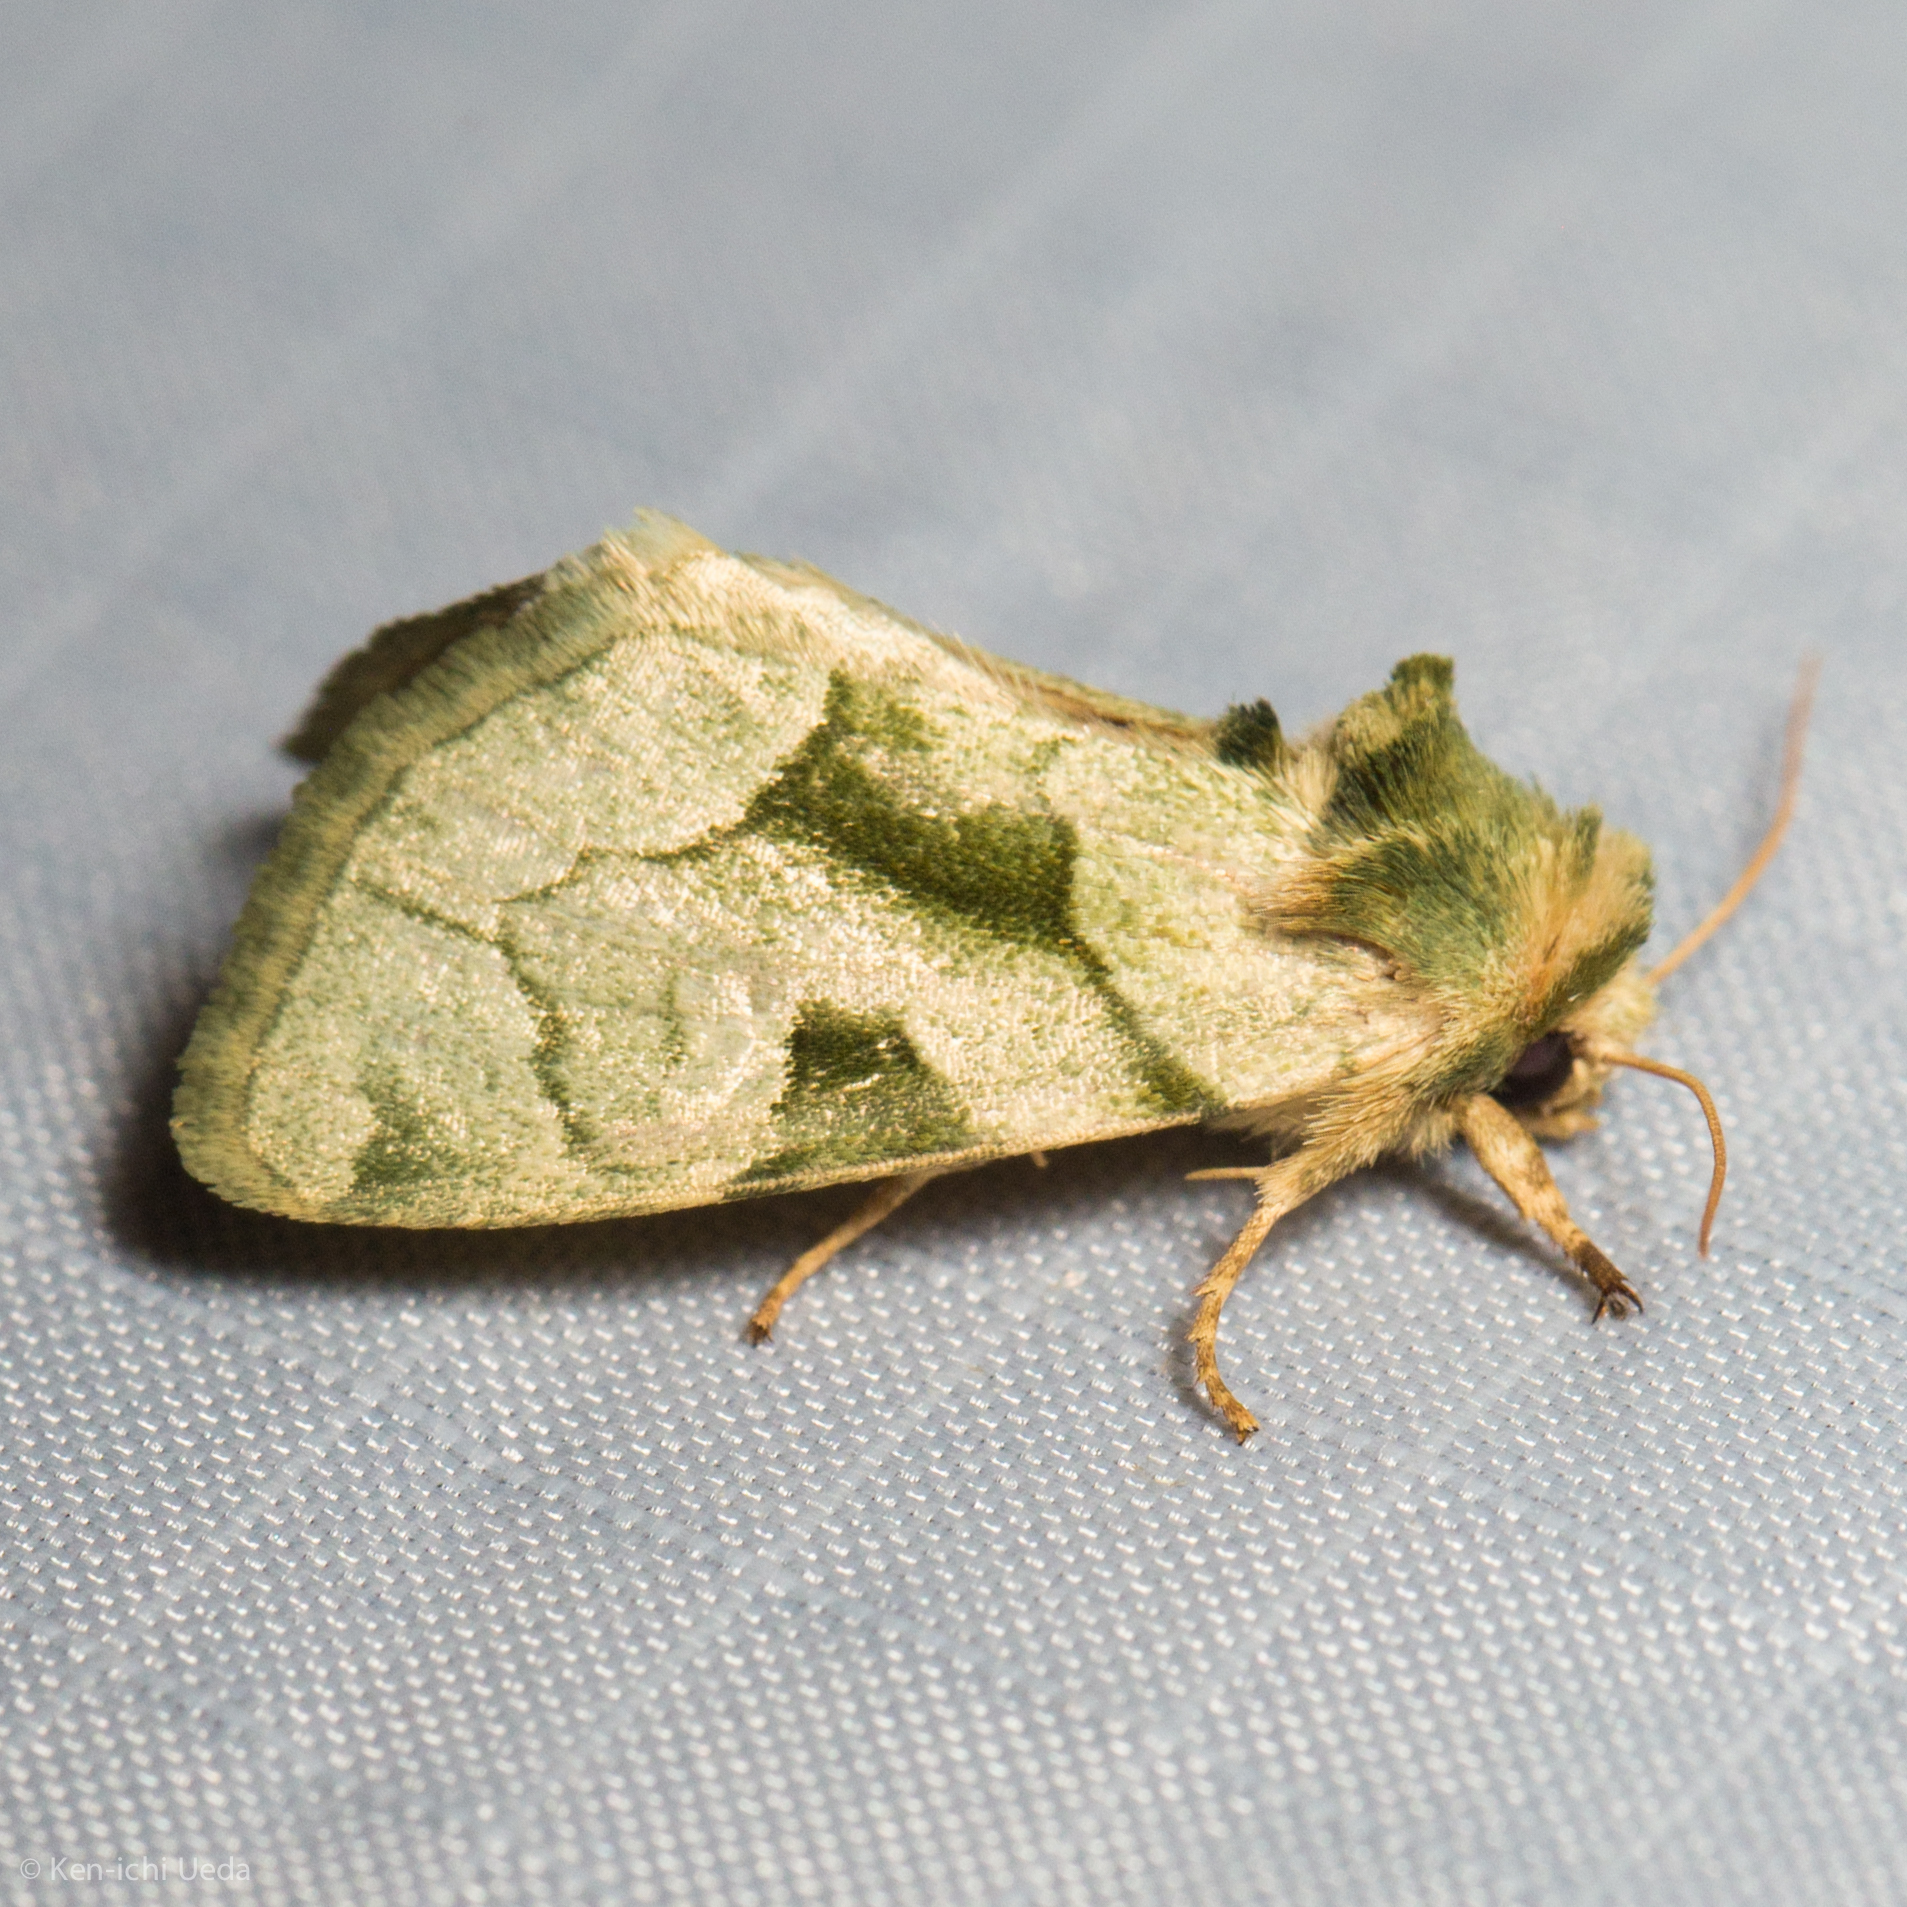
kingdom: Animalia
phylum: Arthropoda
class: Insecta
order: Lepidoptera
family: Noctuidae
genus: Oslaria
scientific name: Oslaria viridifera
